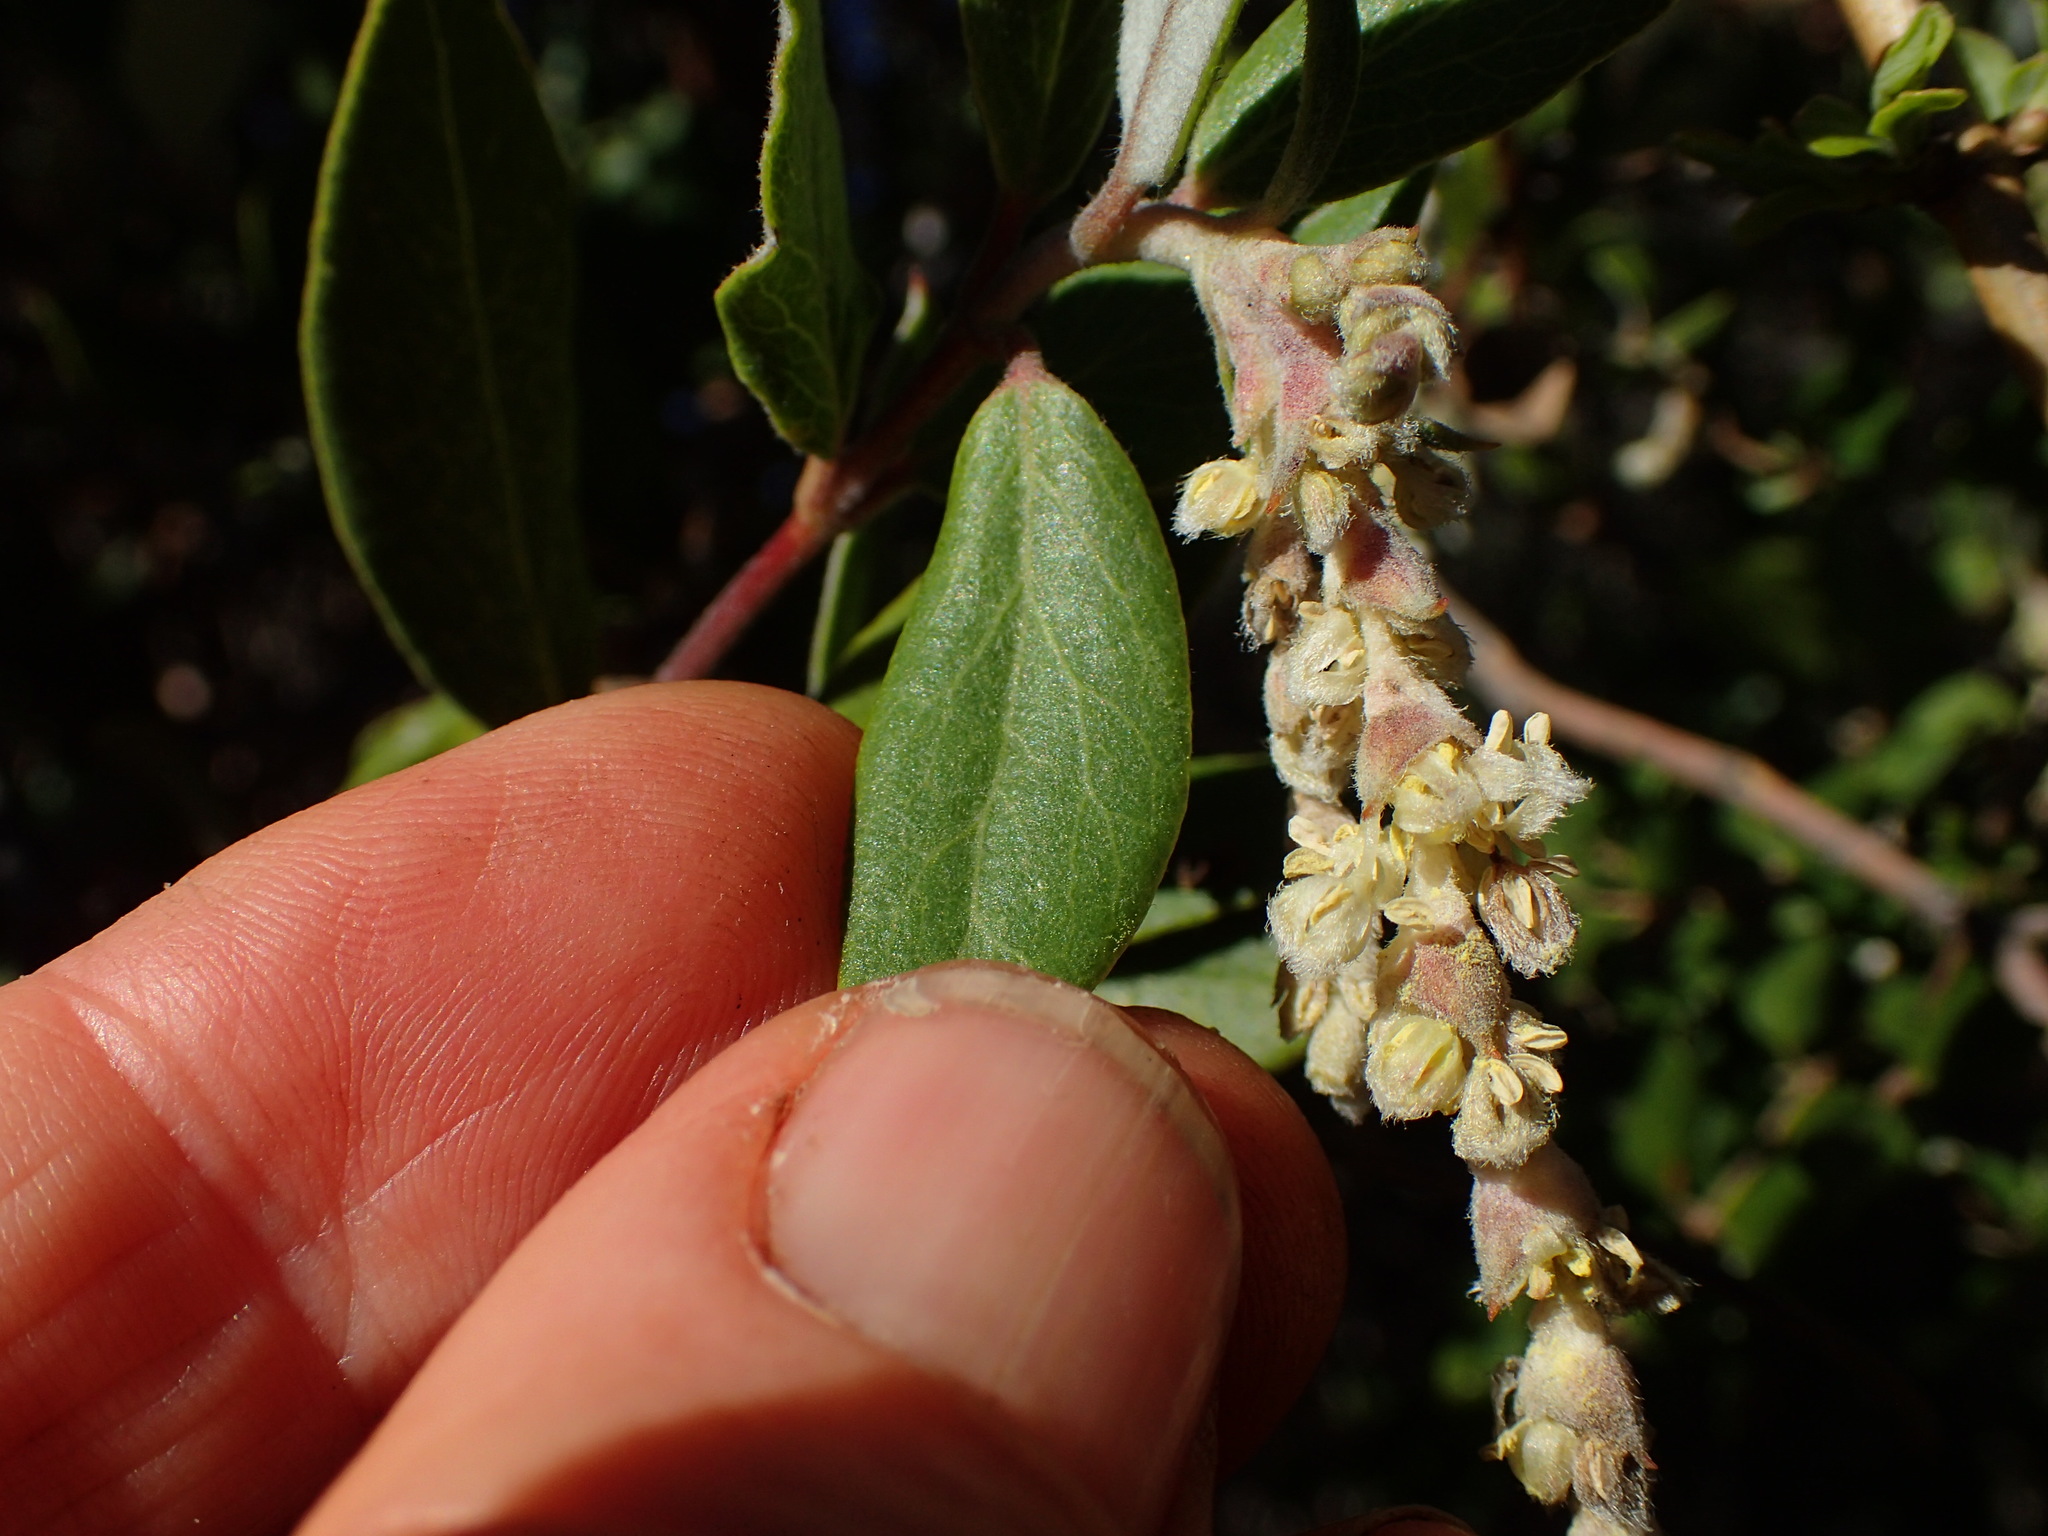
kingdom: Plantae
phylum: Tracheophyta
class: Magnoliopsida
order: Garryales
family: Garryaceae
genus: Garrya
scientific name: Garrya veatchii
